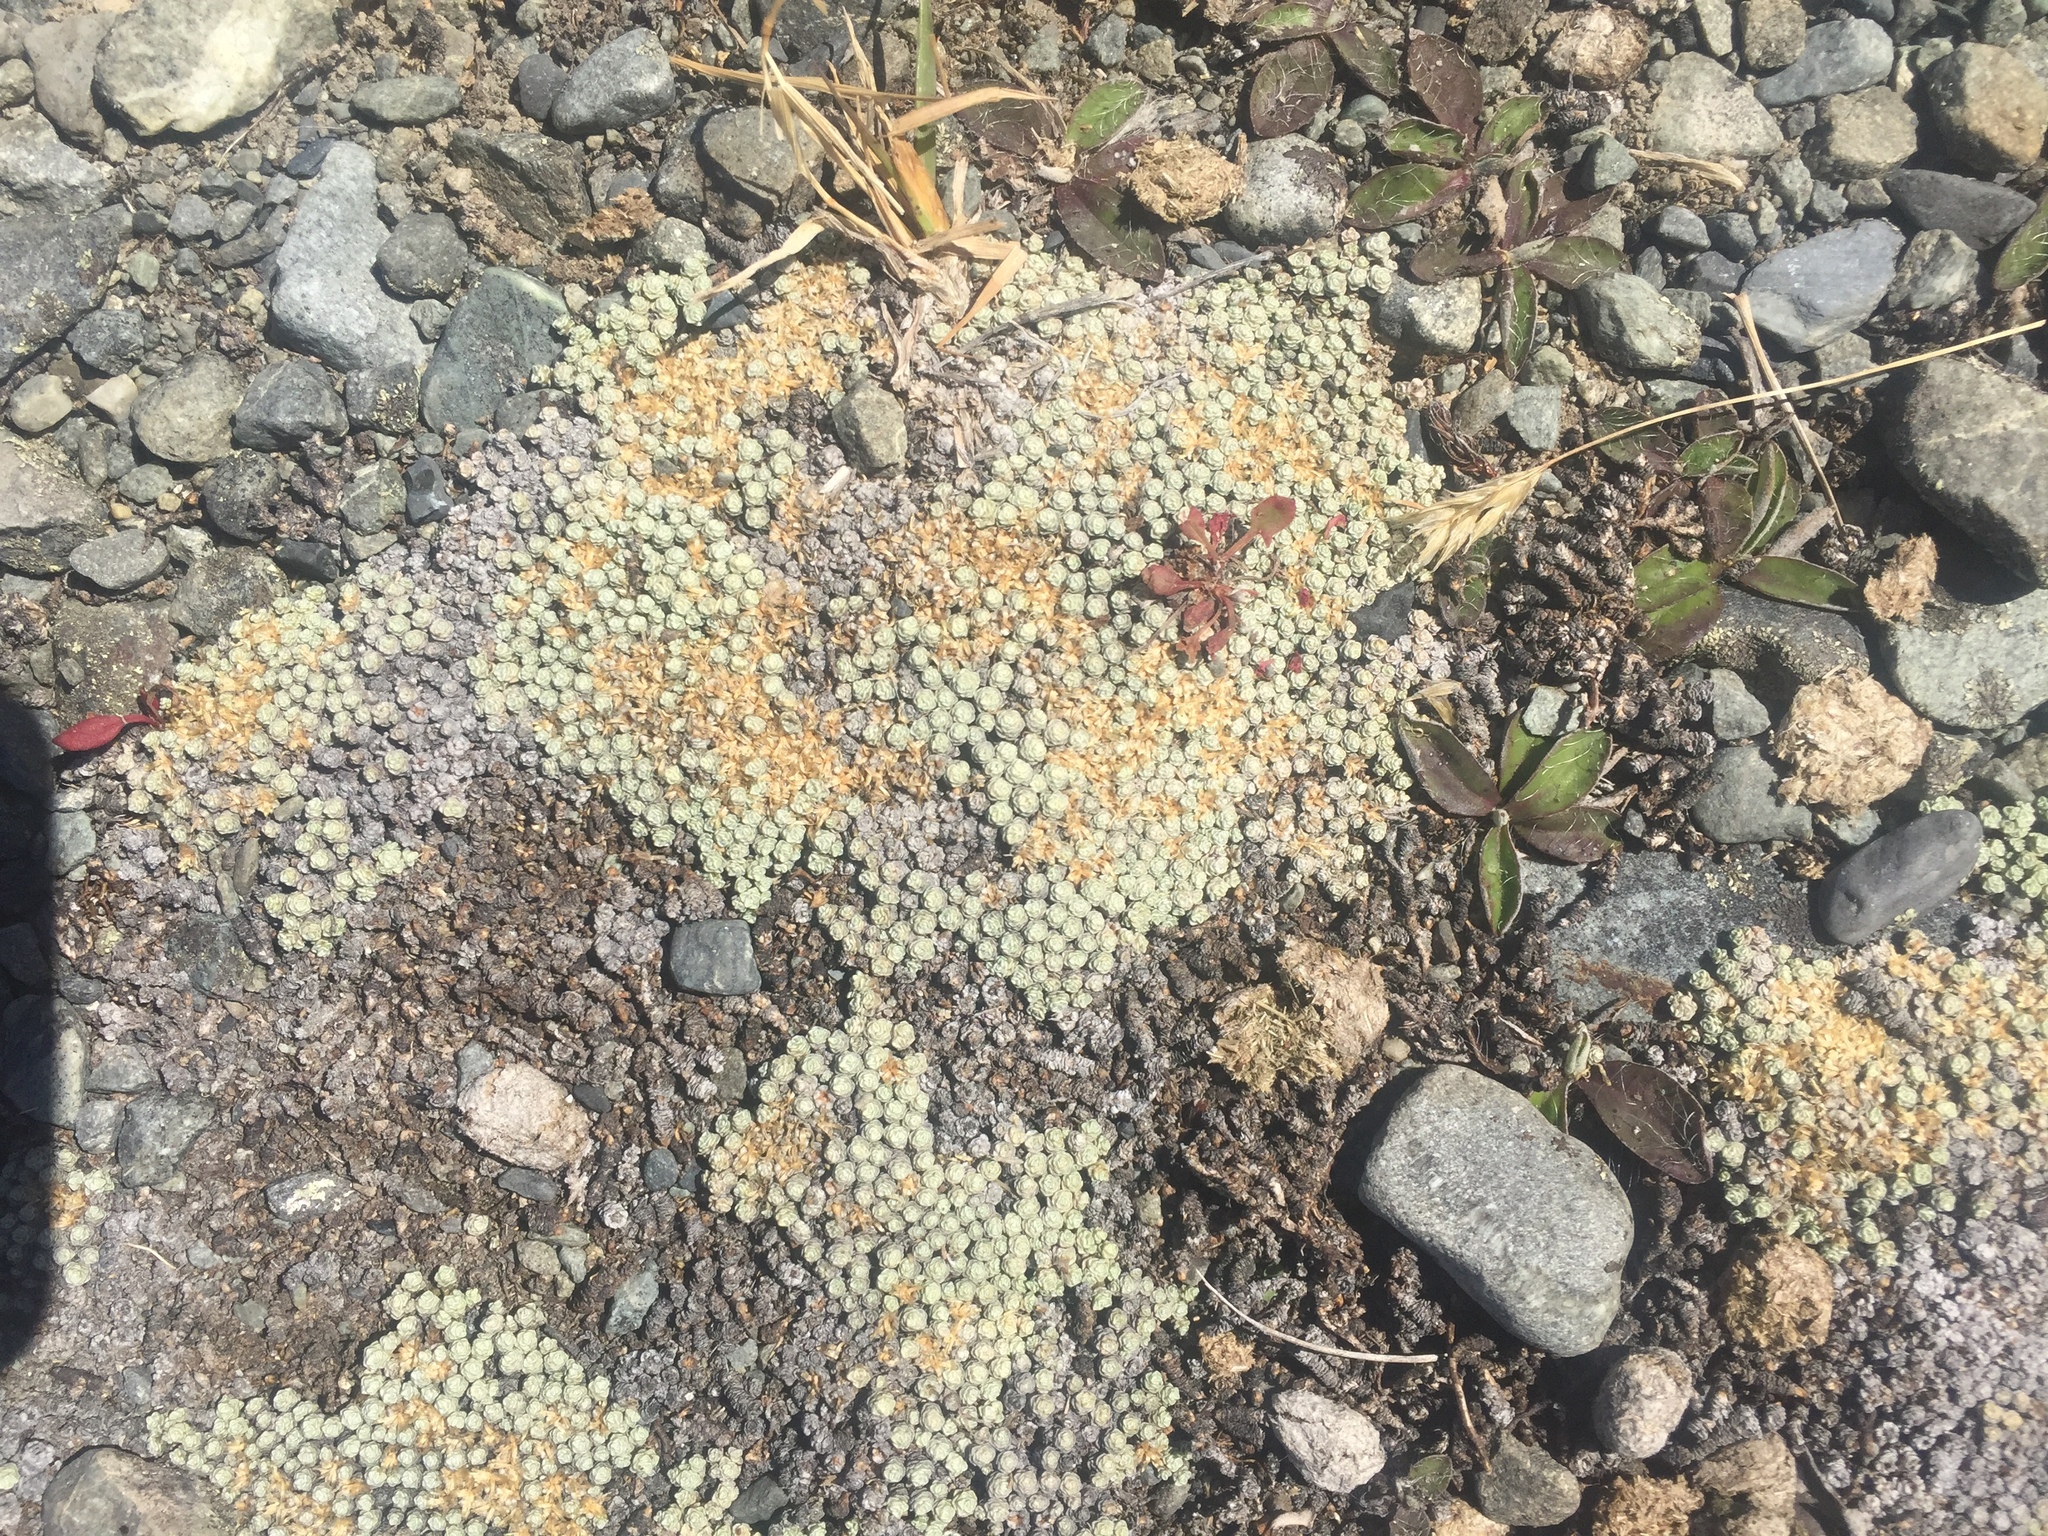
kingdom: Plantae
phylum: Tracheophyta
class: Magnoliopsida
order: Asterales
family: Asteraceae
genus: Raoulia
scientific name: Raoulia australis
